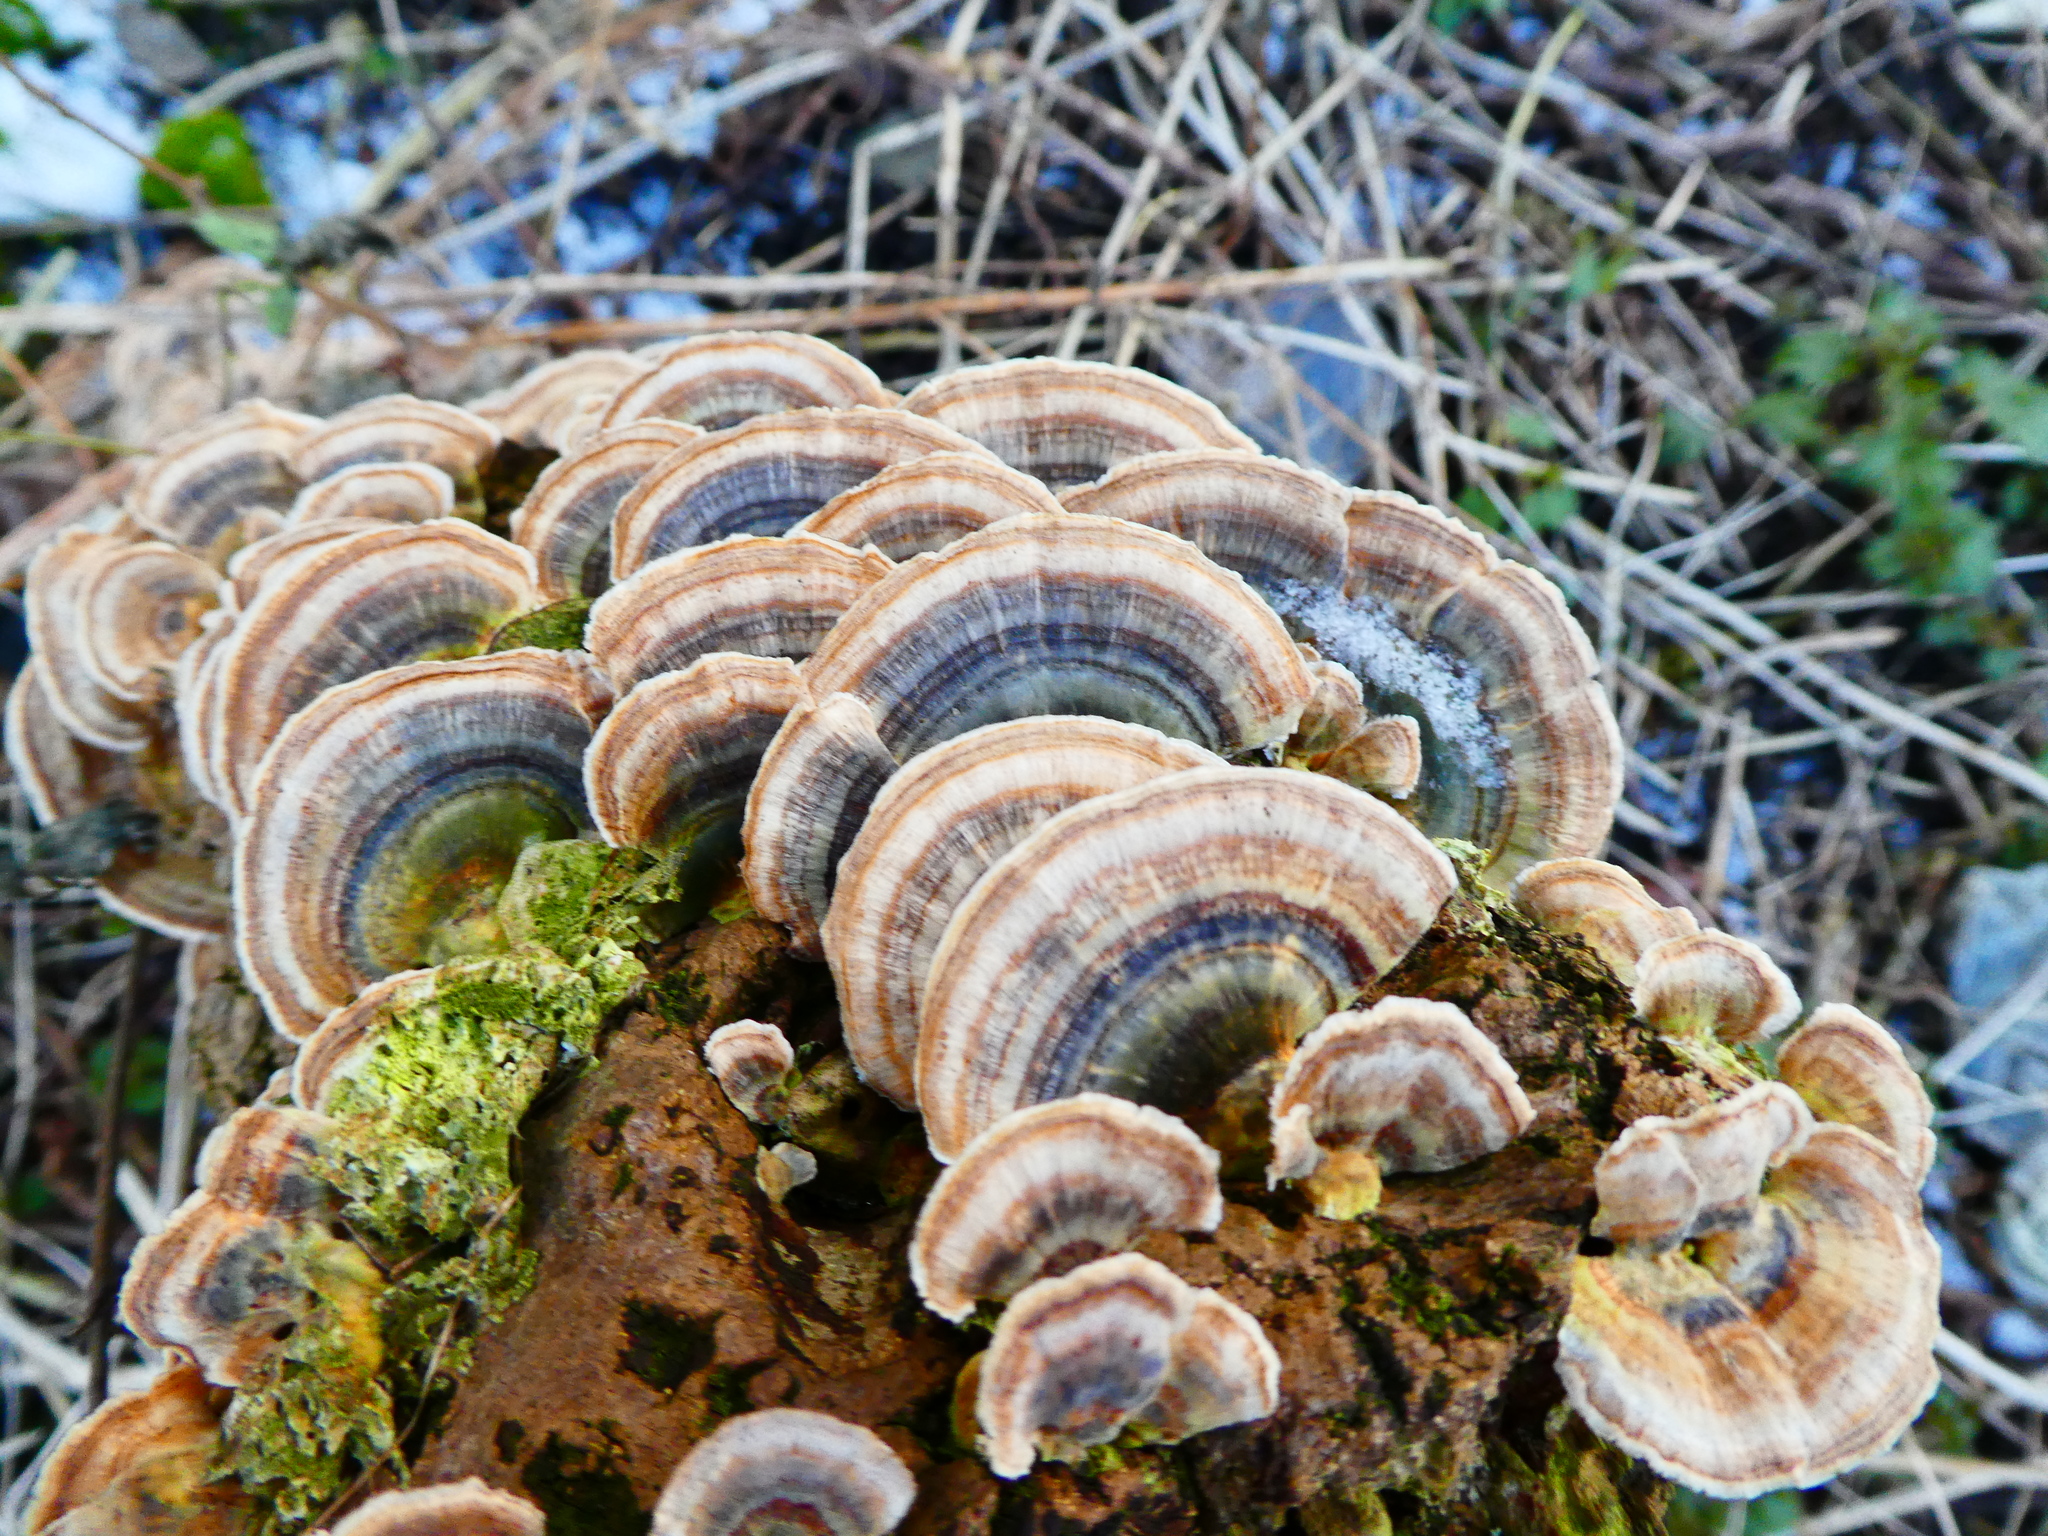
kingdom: Fungi
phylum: Basidiomycota
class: Agaricomycetes
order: Polyporales
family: Polyporaceae
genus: Trametes
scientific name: Trametes versicolor
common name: Turkeytail
